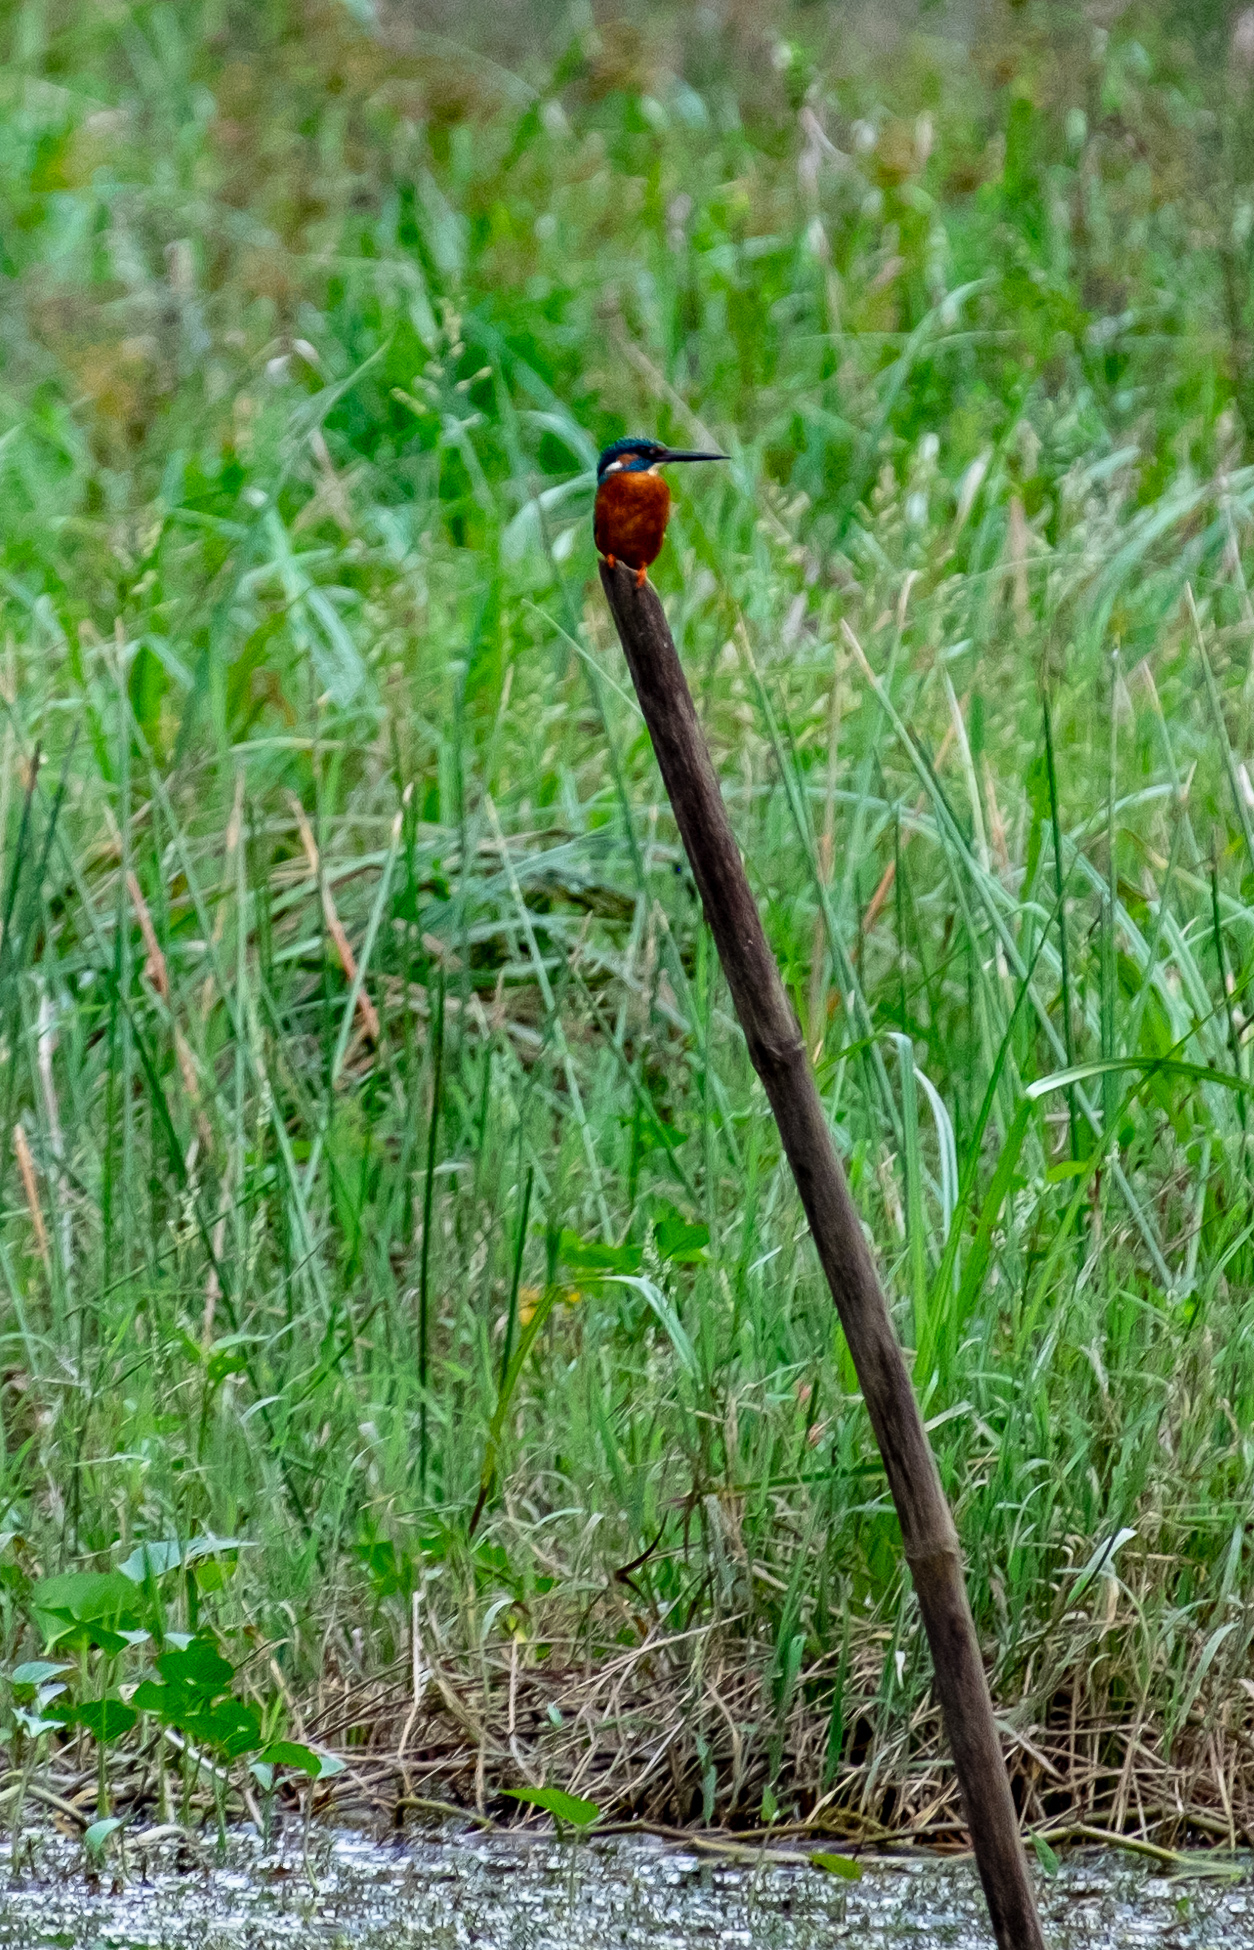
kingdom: Animalia
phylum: Chordata
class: Aves
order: Coraciiformes
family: Alcedinidae
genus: Alcedo
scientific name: Alcedo atthis
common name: Common kingfisher
